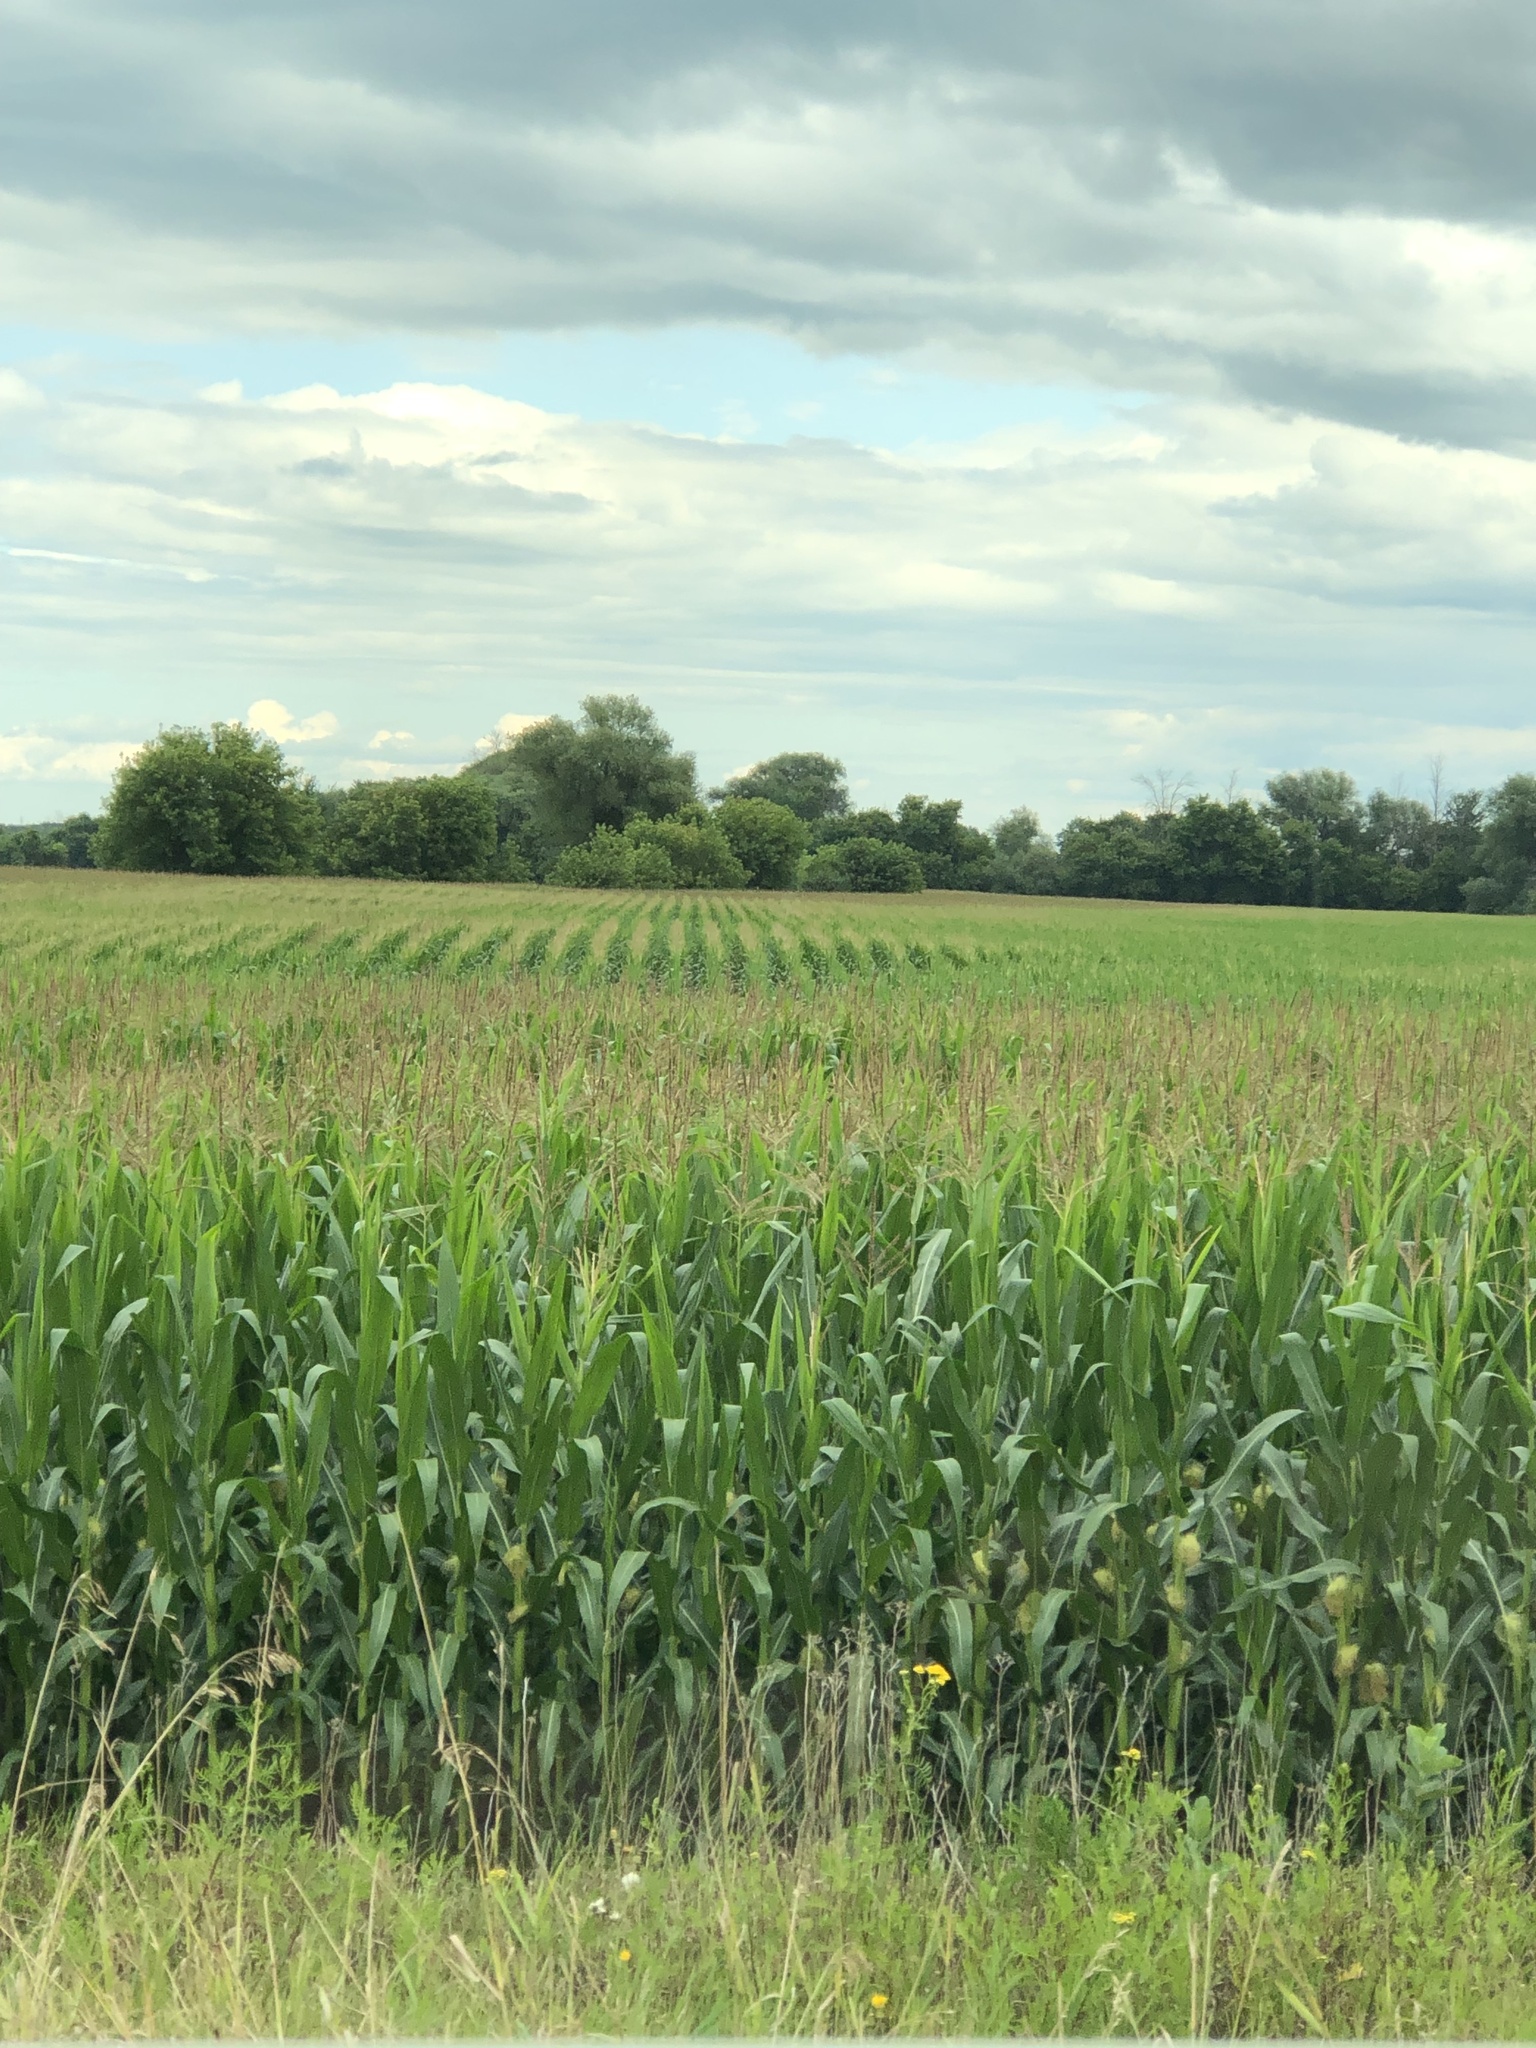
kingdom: Plantae
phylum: Tracheophyta
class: Liliopsida
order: Poales
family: Poaceae
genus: Zea
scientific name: Zea mays
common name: Maize
